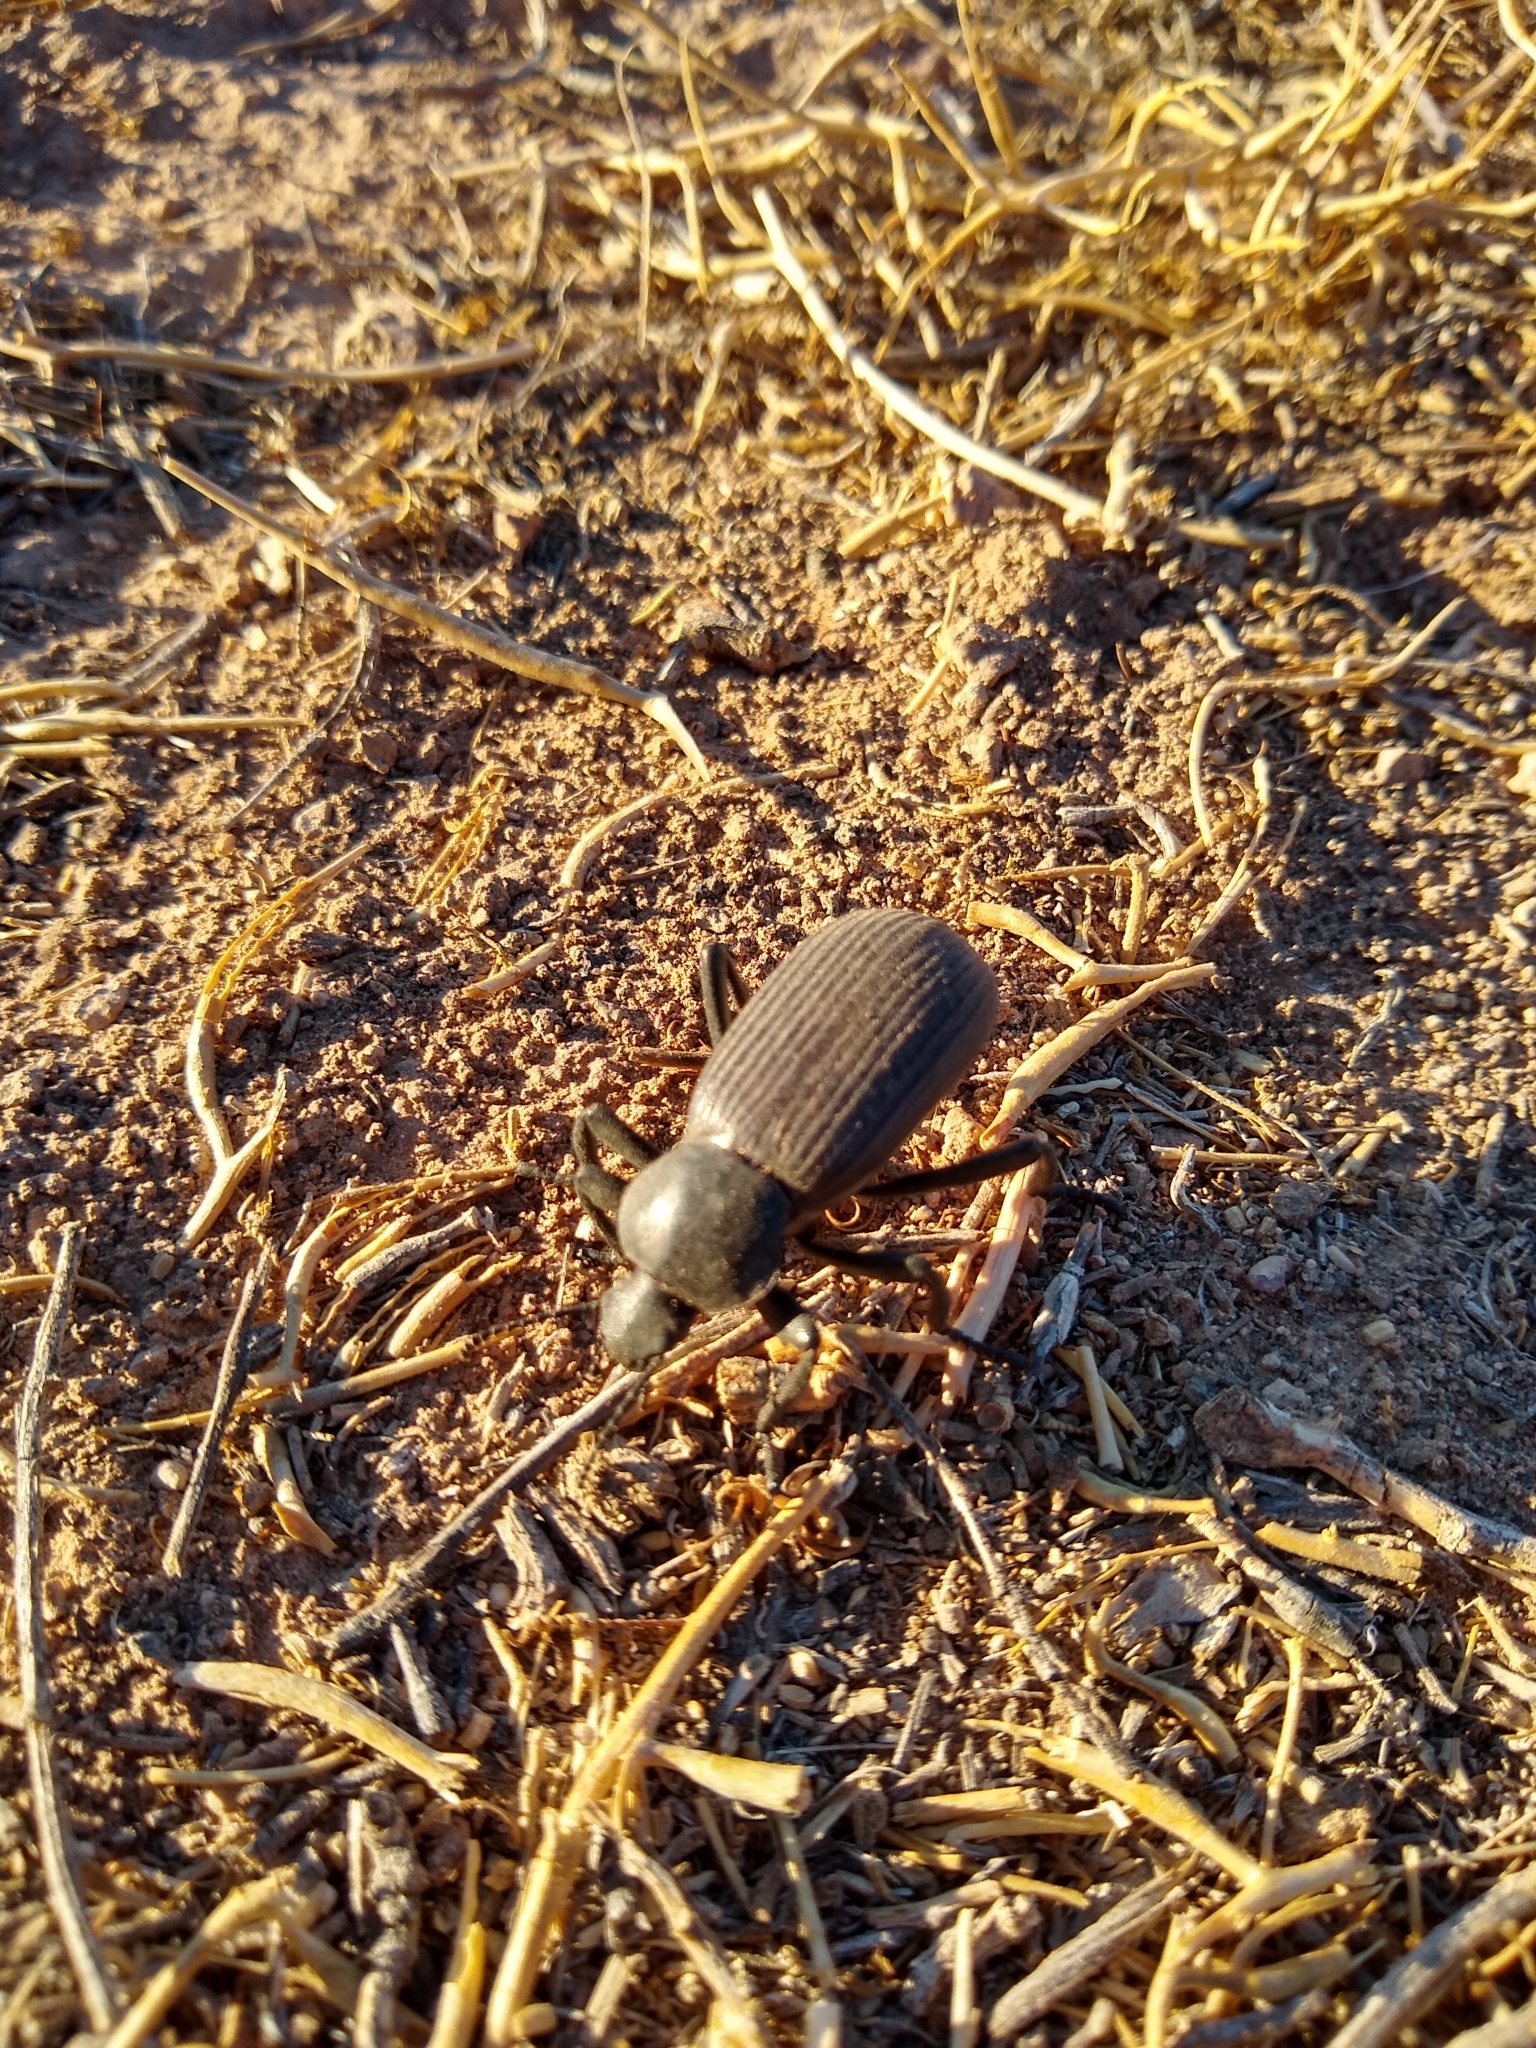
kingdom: Animalia
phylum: Arthropoda
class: Insecta
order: Coleoptera
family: Tenebrionidae
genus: Eleodes
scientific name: Eleodes obscura
